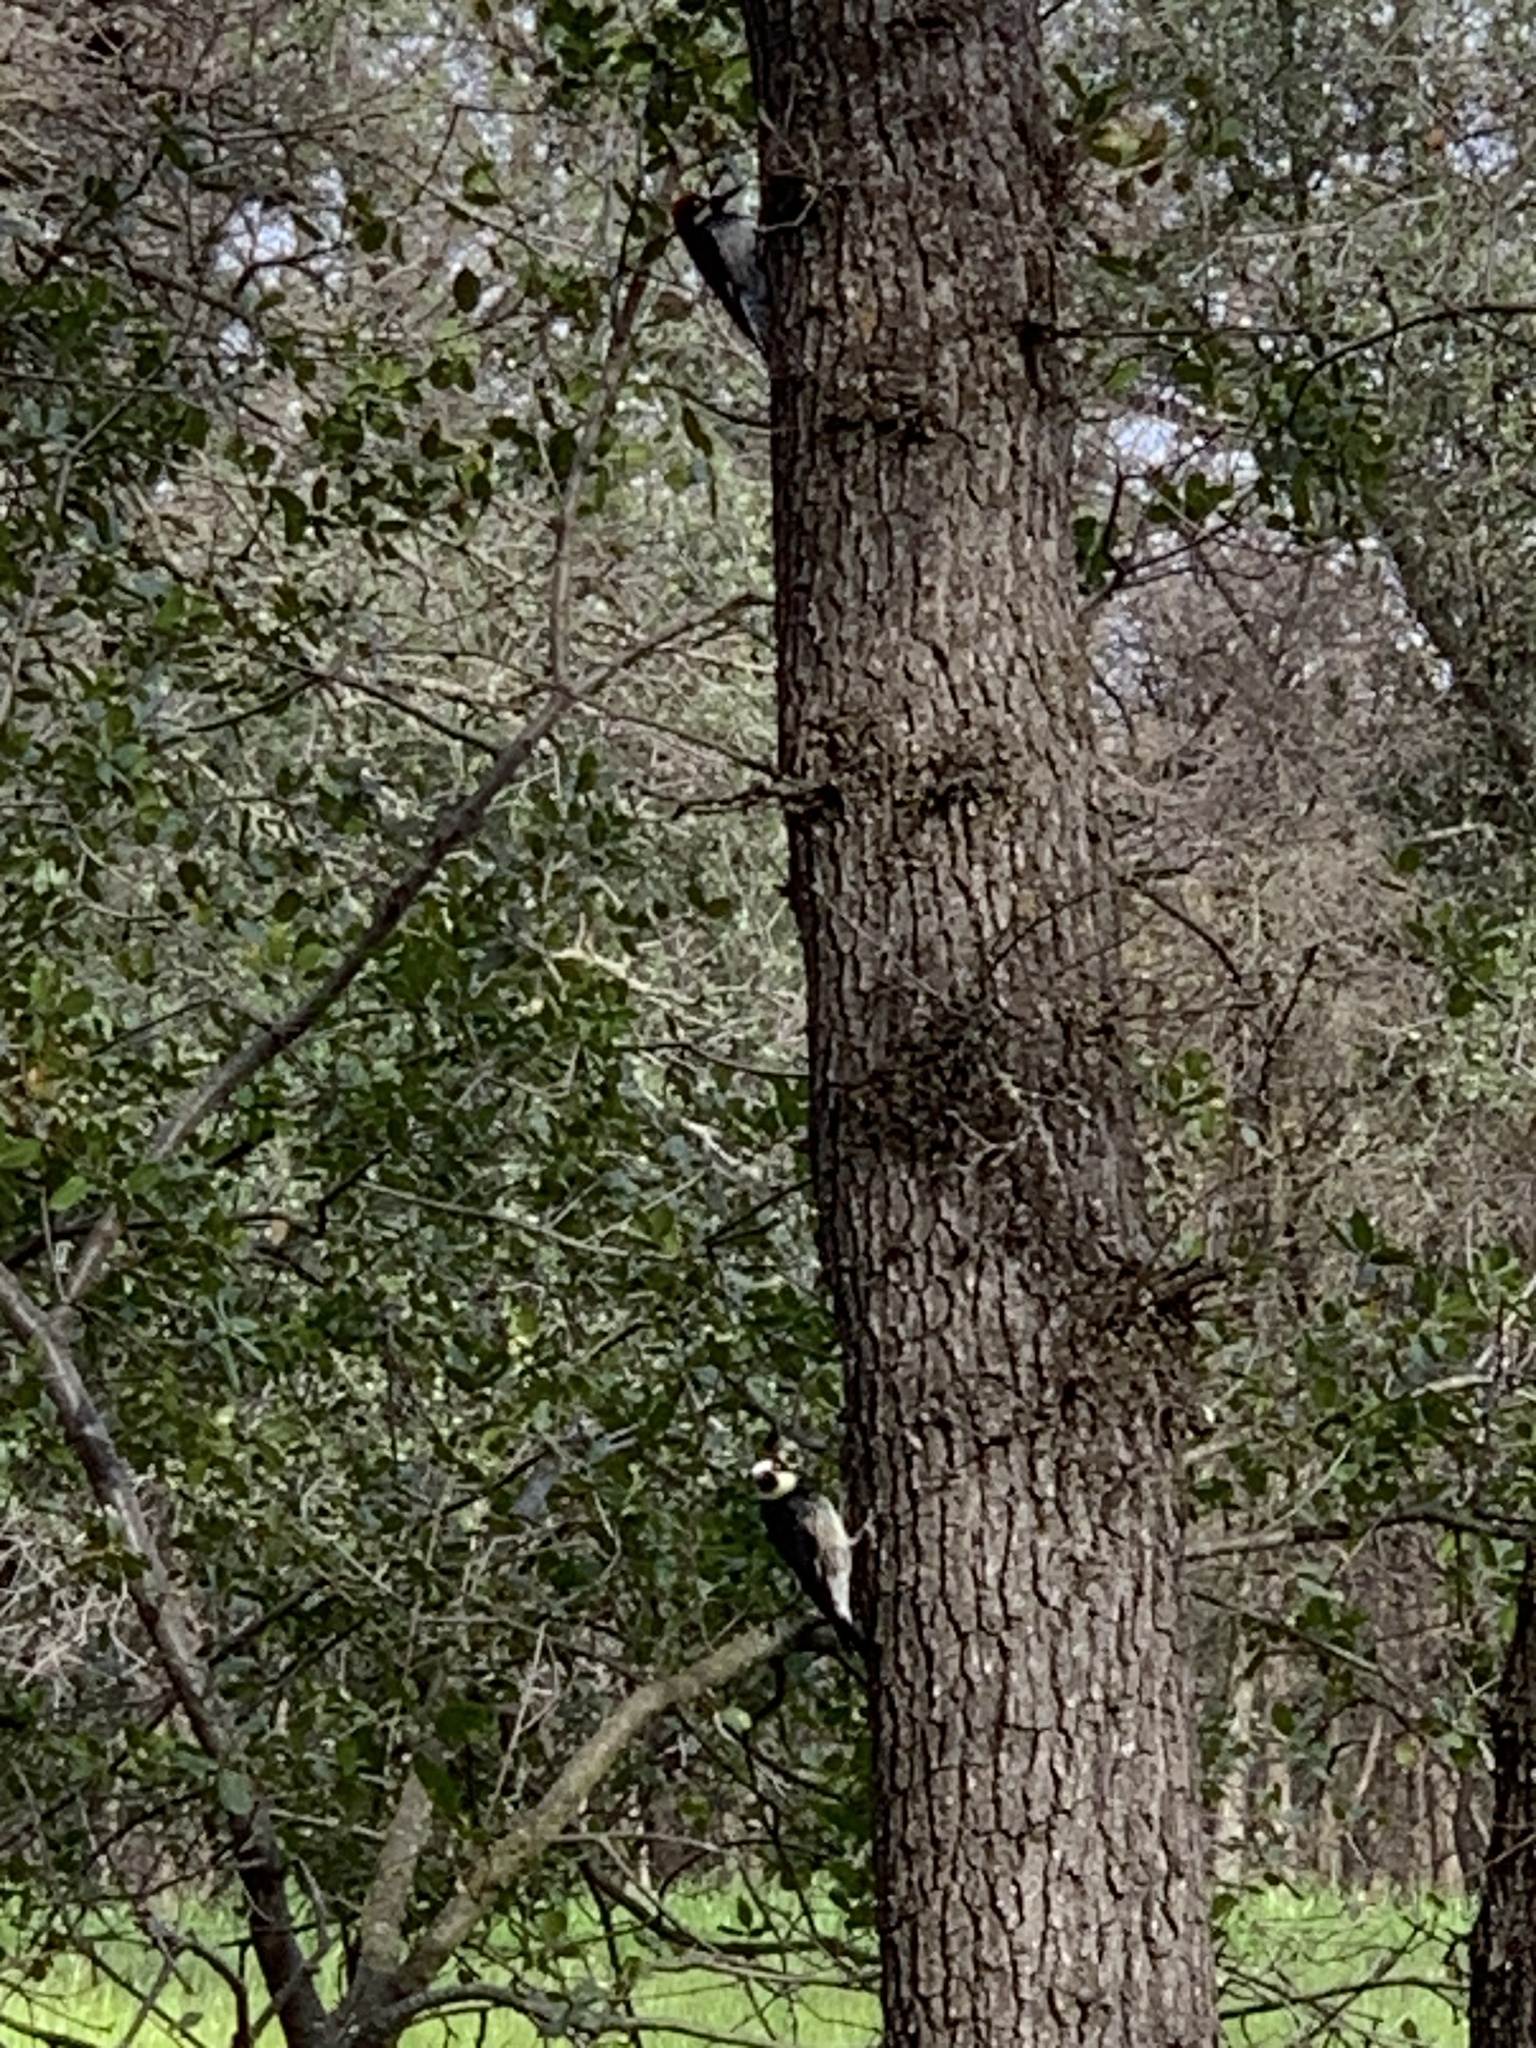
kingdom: Animalia
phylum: Chordata
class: Aves
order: Piciformes
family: Picidae
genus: Melanerpes
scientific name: Melanerpes formicivorus
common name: Acorn woodpecker
